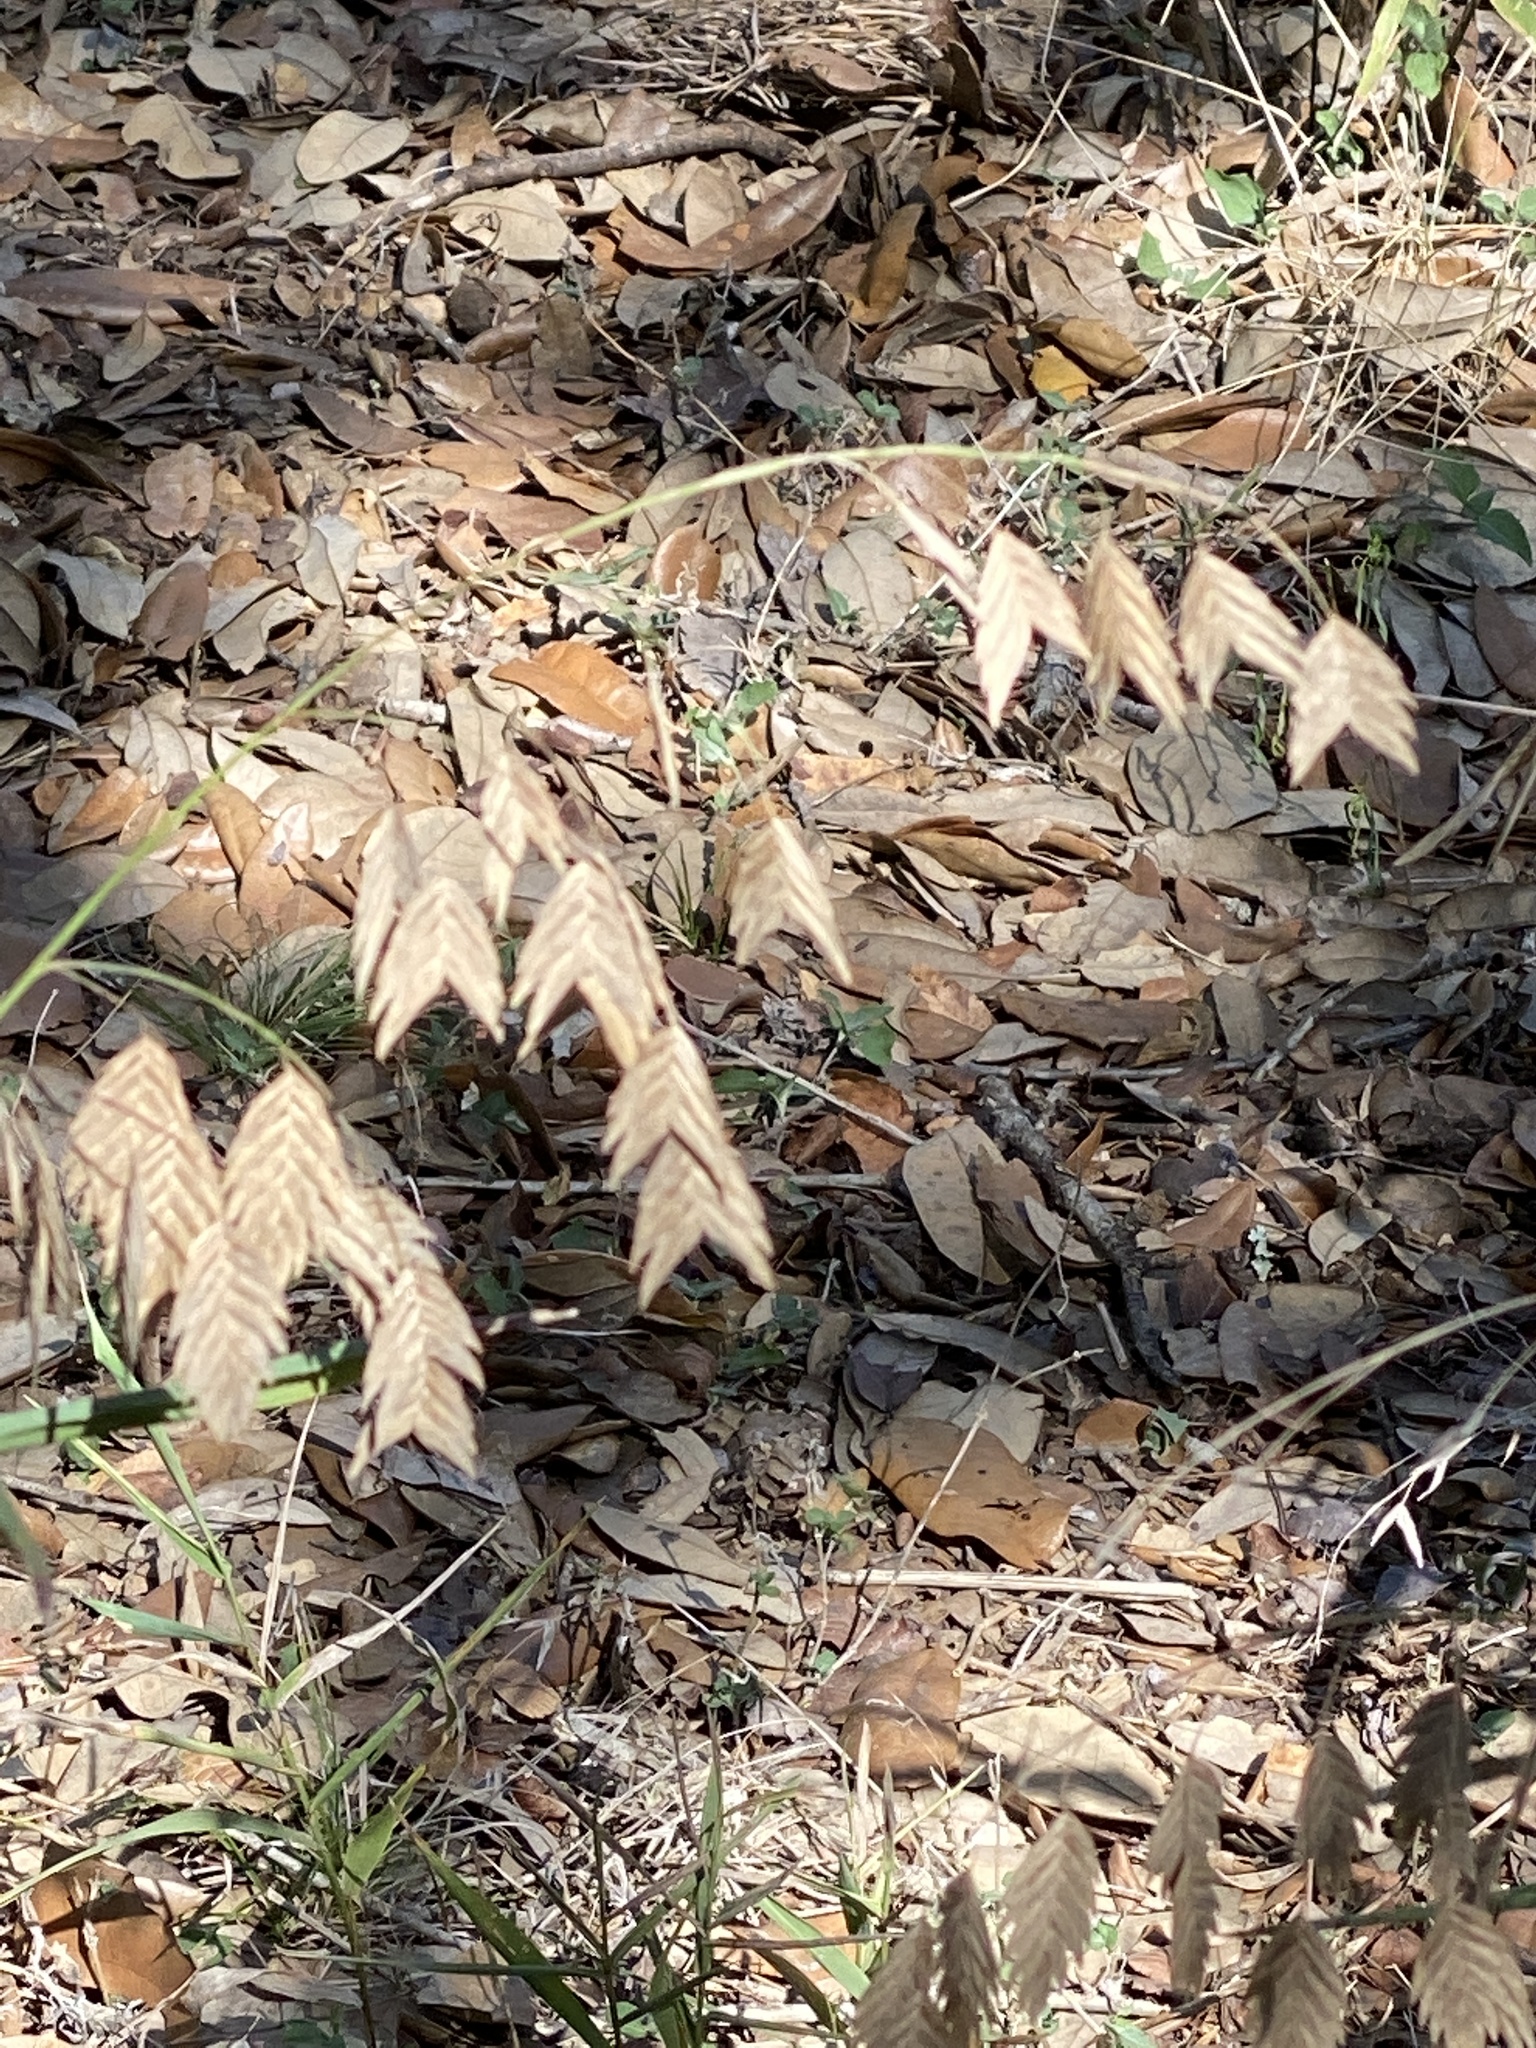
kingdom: Plantae
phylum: Tracheophyta
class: Liliopsida
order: Poales
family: Poaceae
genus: Chasmanthium
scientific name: Chasmanthium latifolium
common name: Broad-leaved chasmanthium
